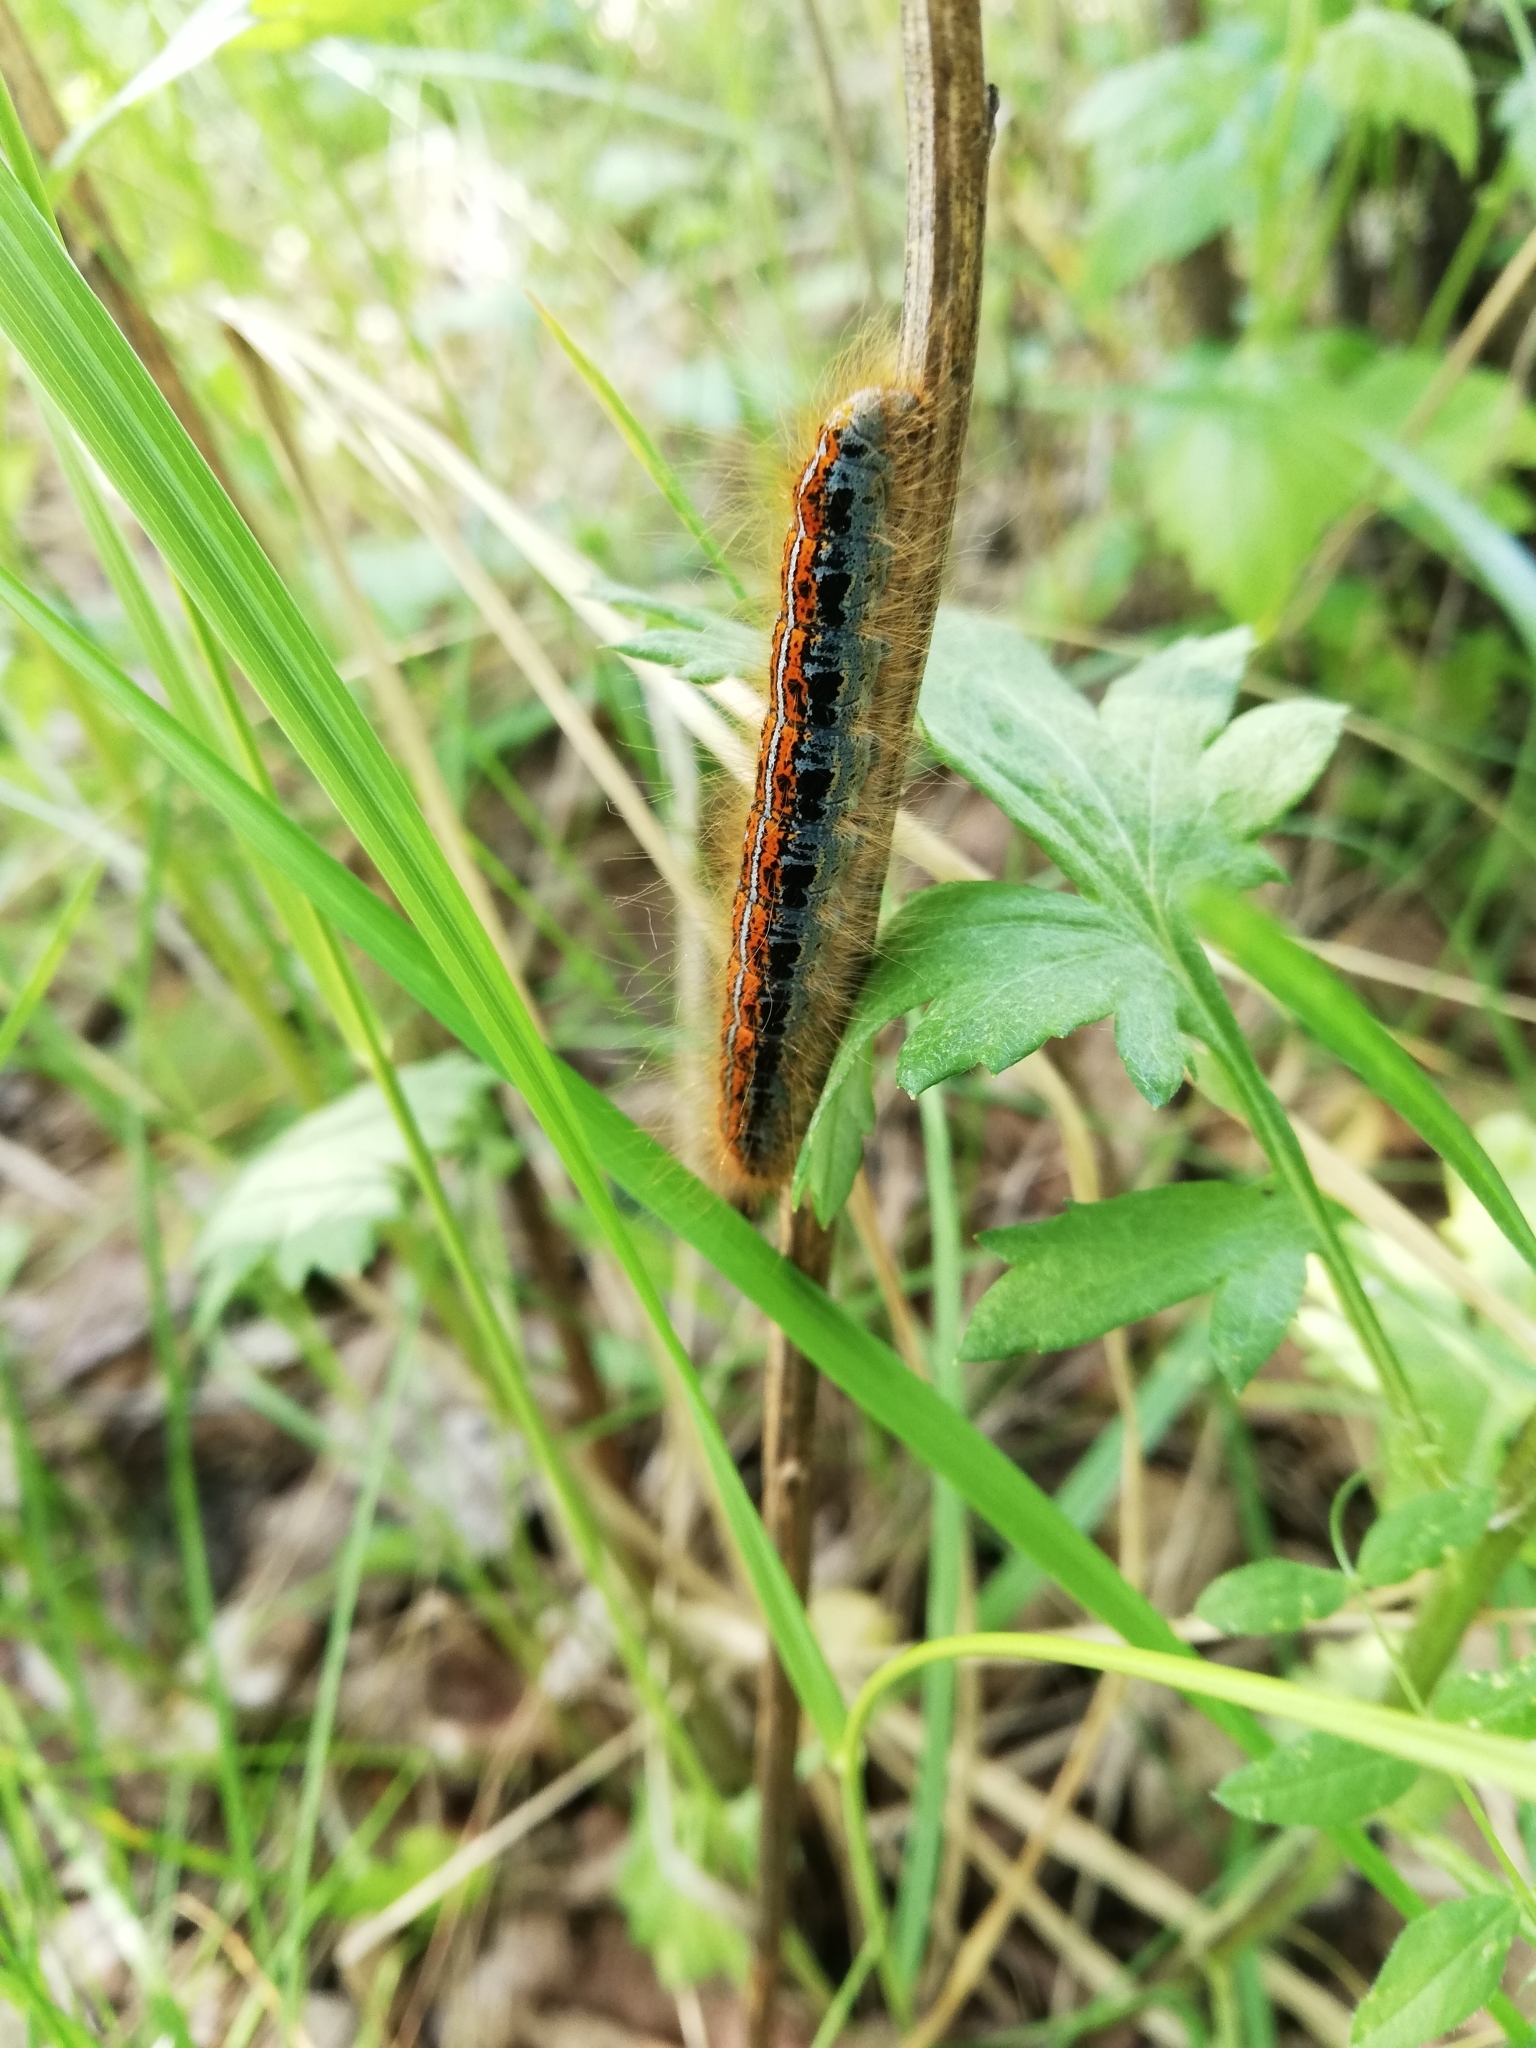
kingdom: Animalia
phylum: Arthropoda
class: Insecta
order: Lepidoptera
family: Lasiocampidae
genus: Malacosoma
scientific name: Malacosoma castrense
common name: Ground lackey
